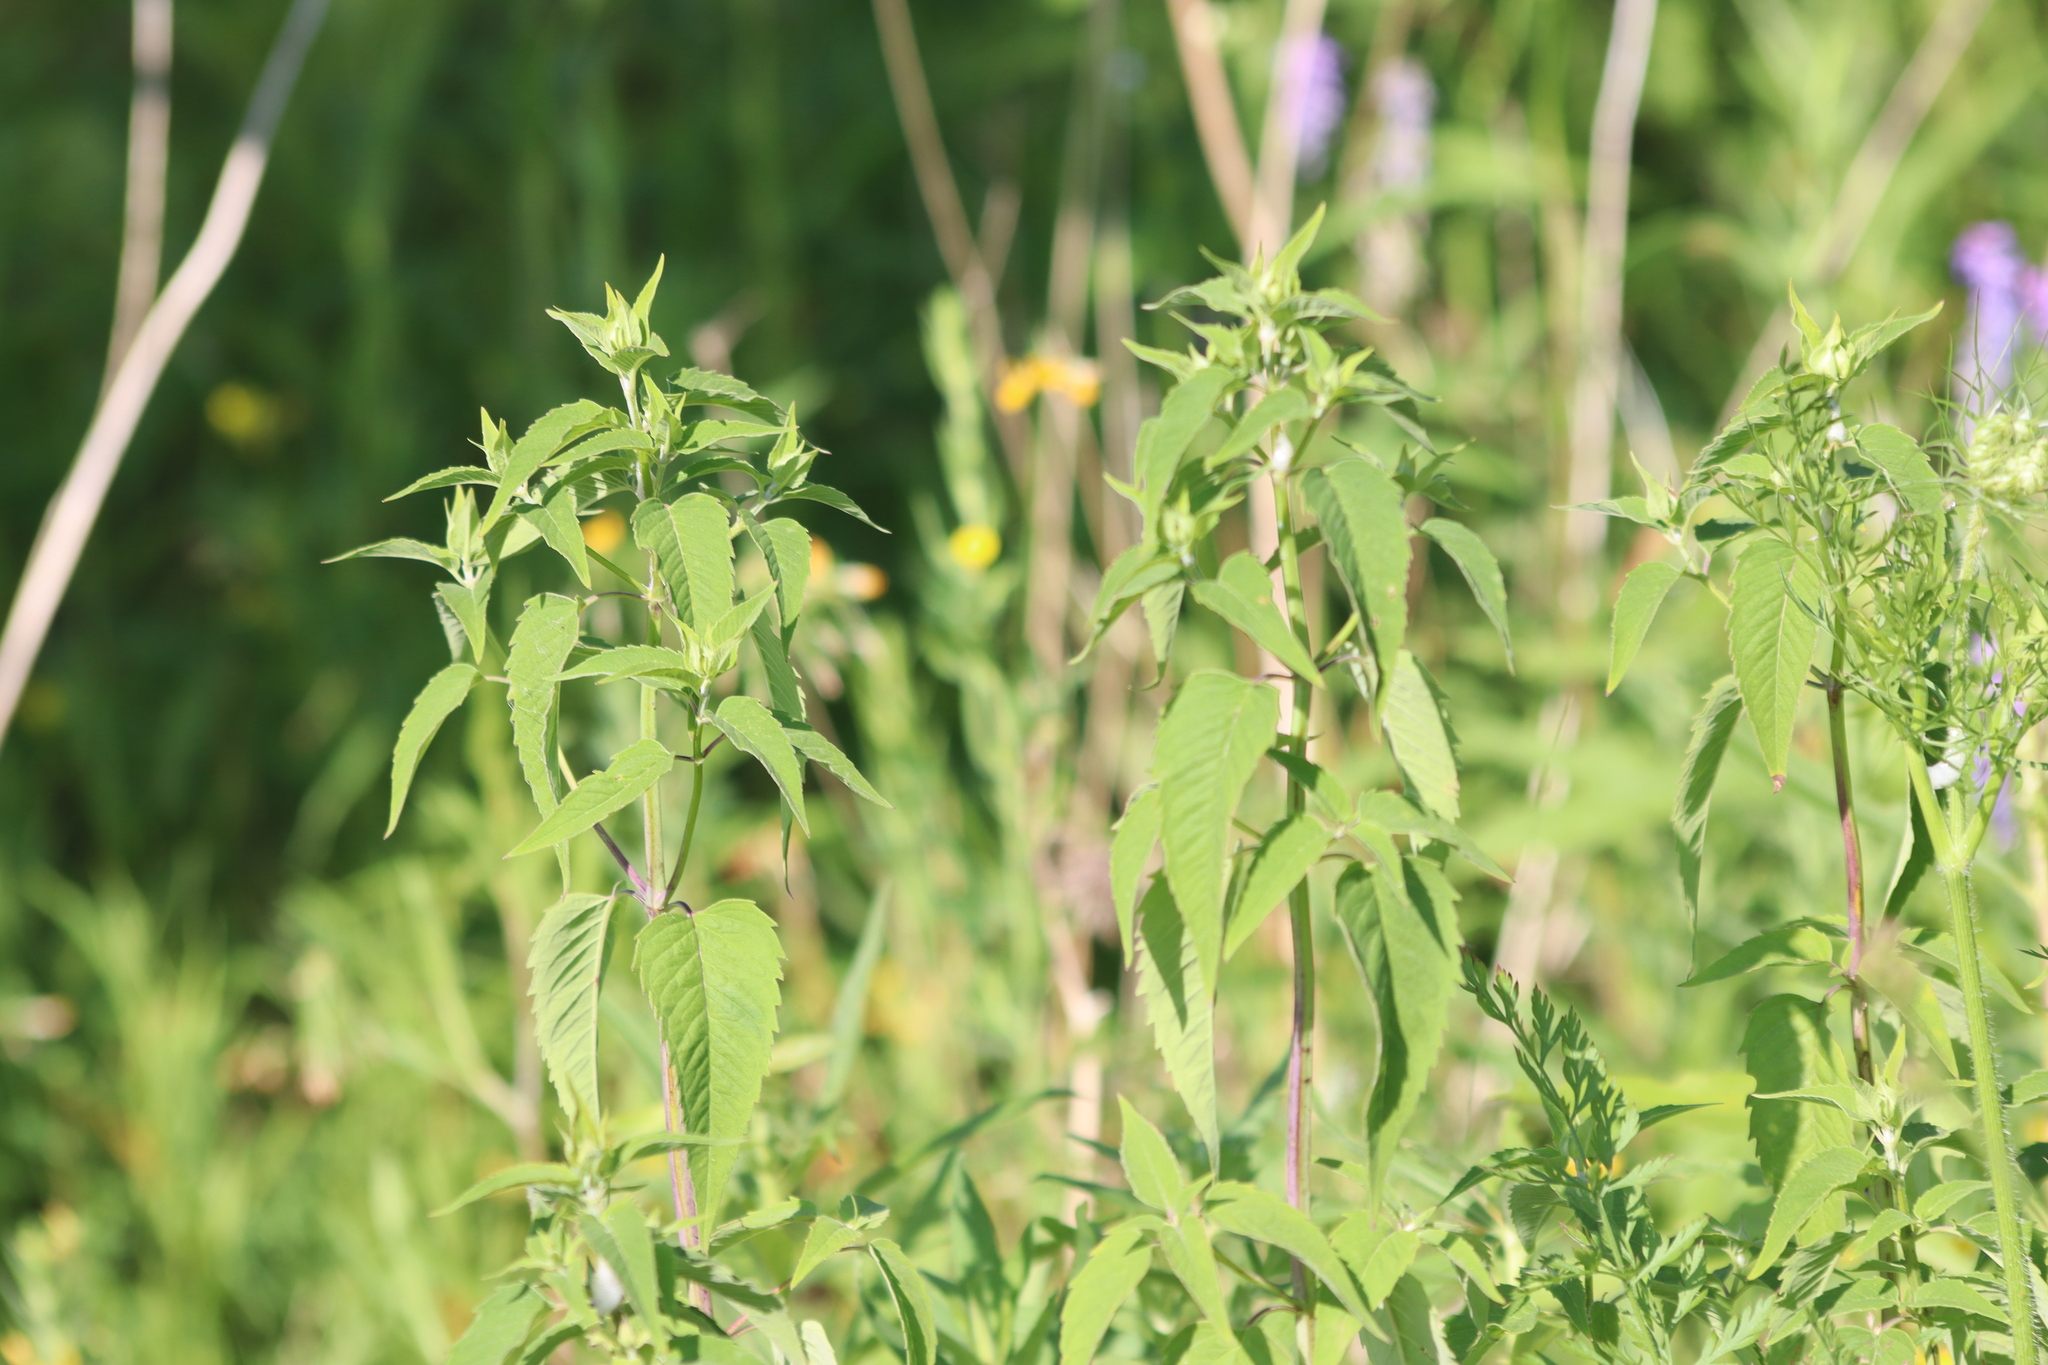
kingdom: Plantae
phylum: Tracheophyta
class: Magnoliopsida
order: Lamiales
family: Lamiaceae
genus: Monarda
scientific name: Monarda fistulosa
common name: Purple beebalm
